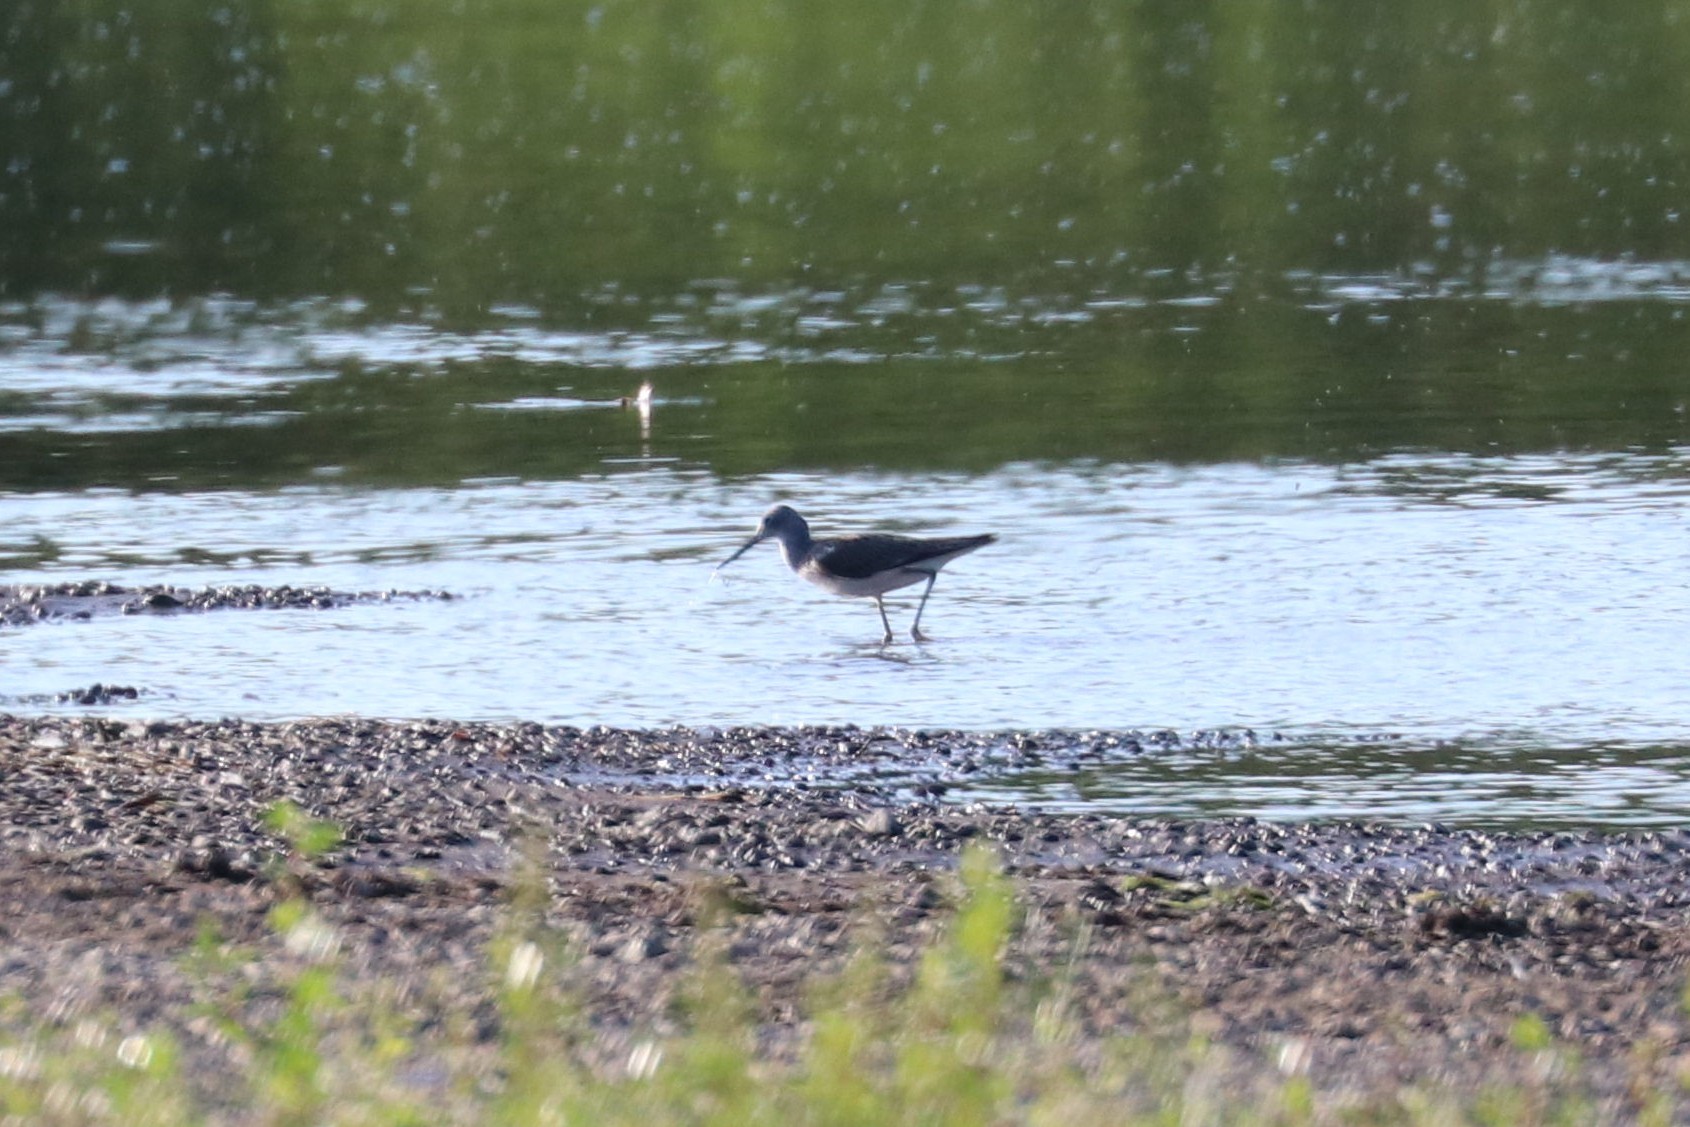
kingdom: Animalia
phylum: Chordata
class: Aves
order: Charadriiformes
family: Scolopacidae
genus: Tringa
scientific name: Tringa nebularia
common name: Common greenshank
